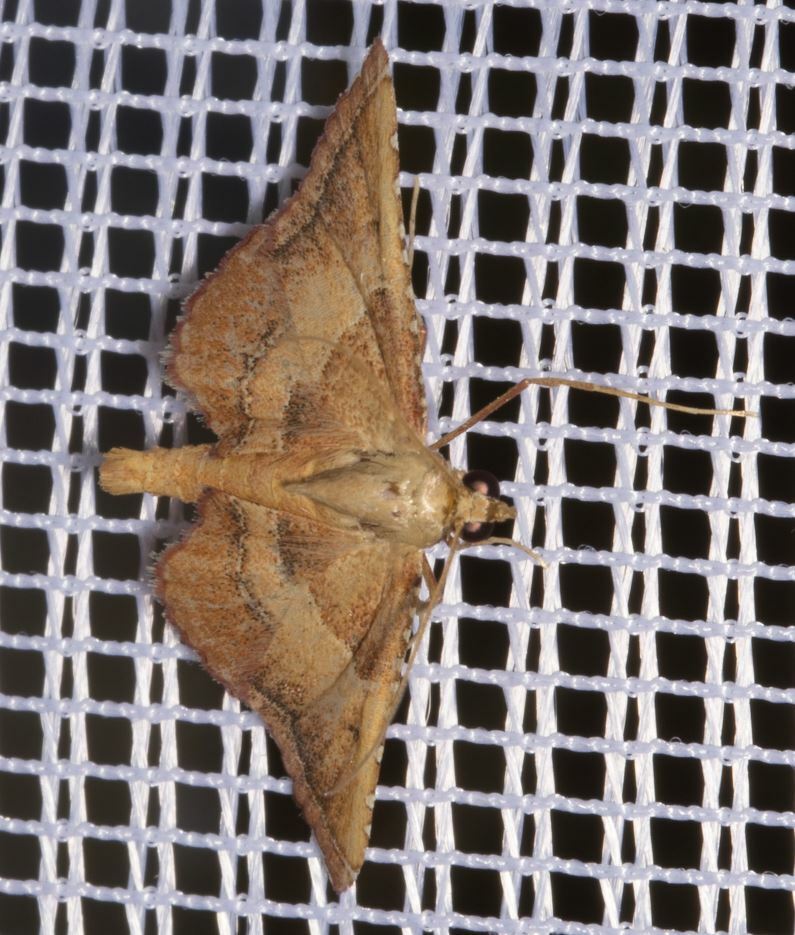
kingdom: Animalia
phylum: Arthropoda
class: Insecta
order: Lepidoptera
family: Pyralidae
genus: Endotricha
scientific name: Endotricha flammealis
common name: Rosy tabby
